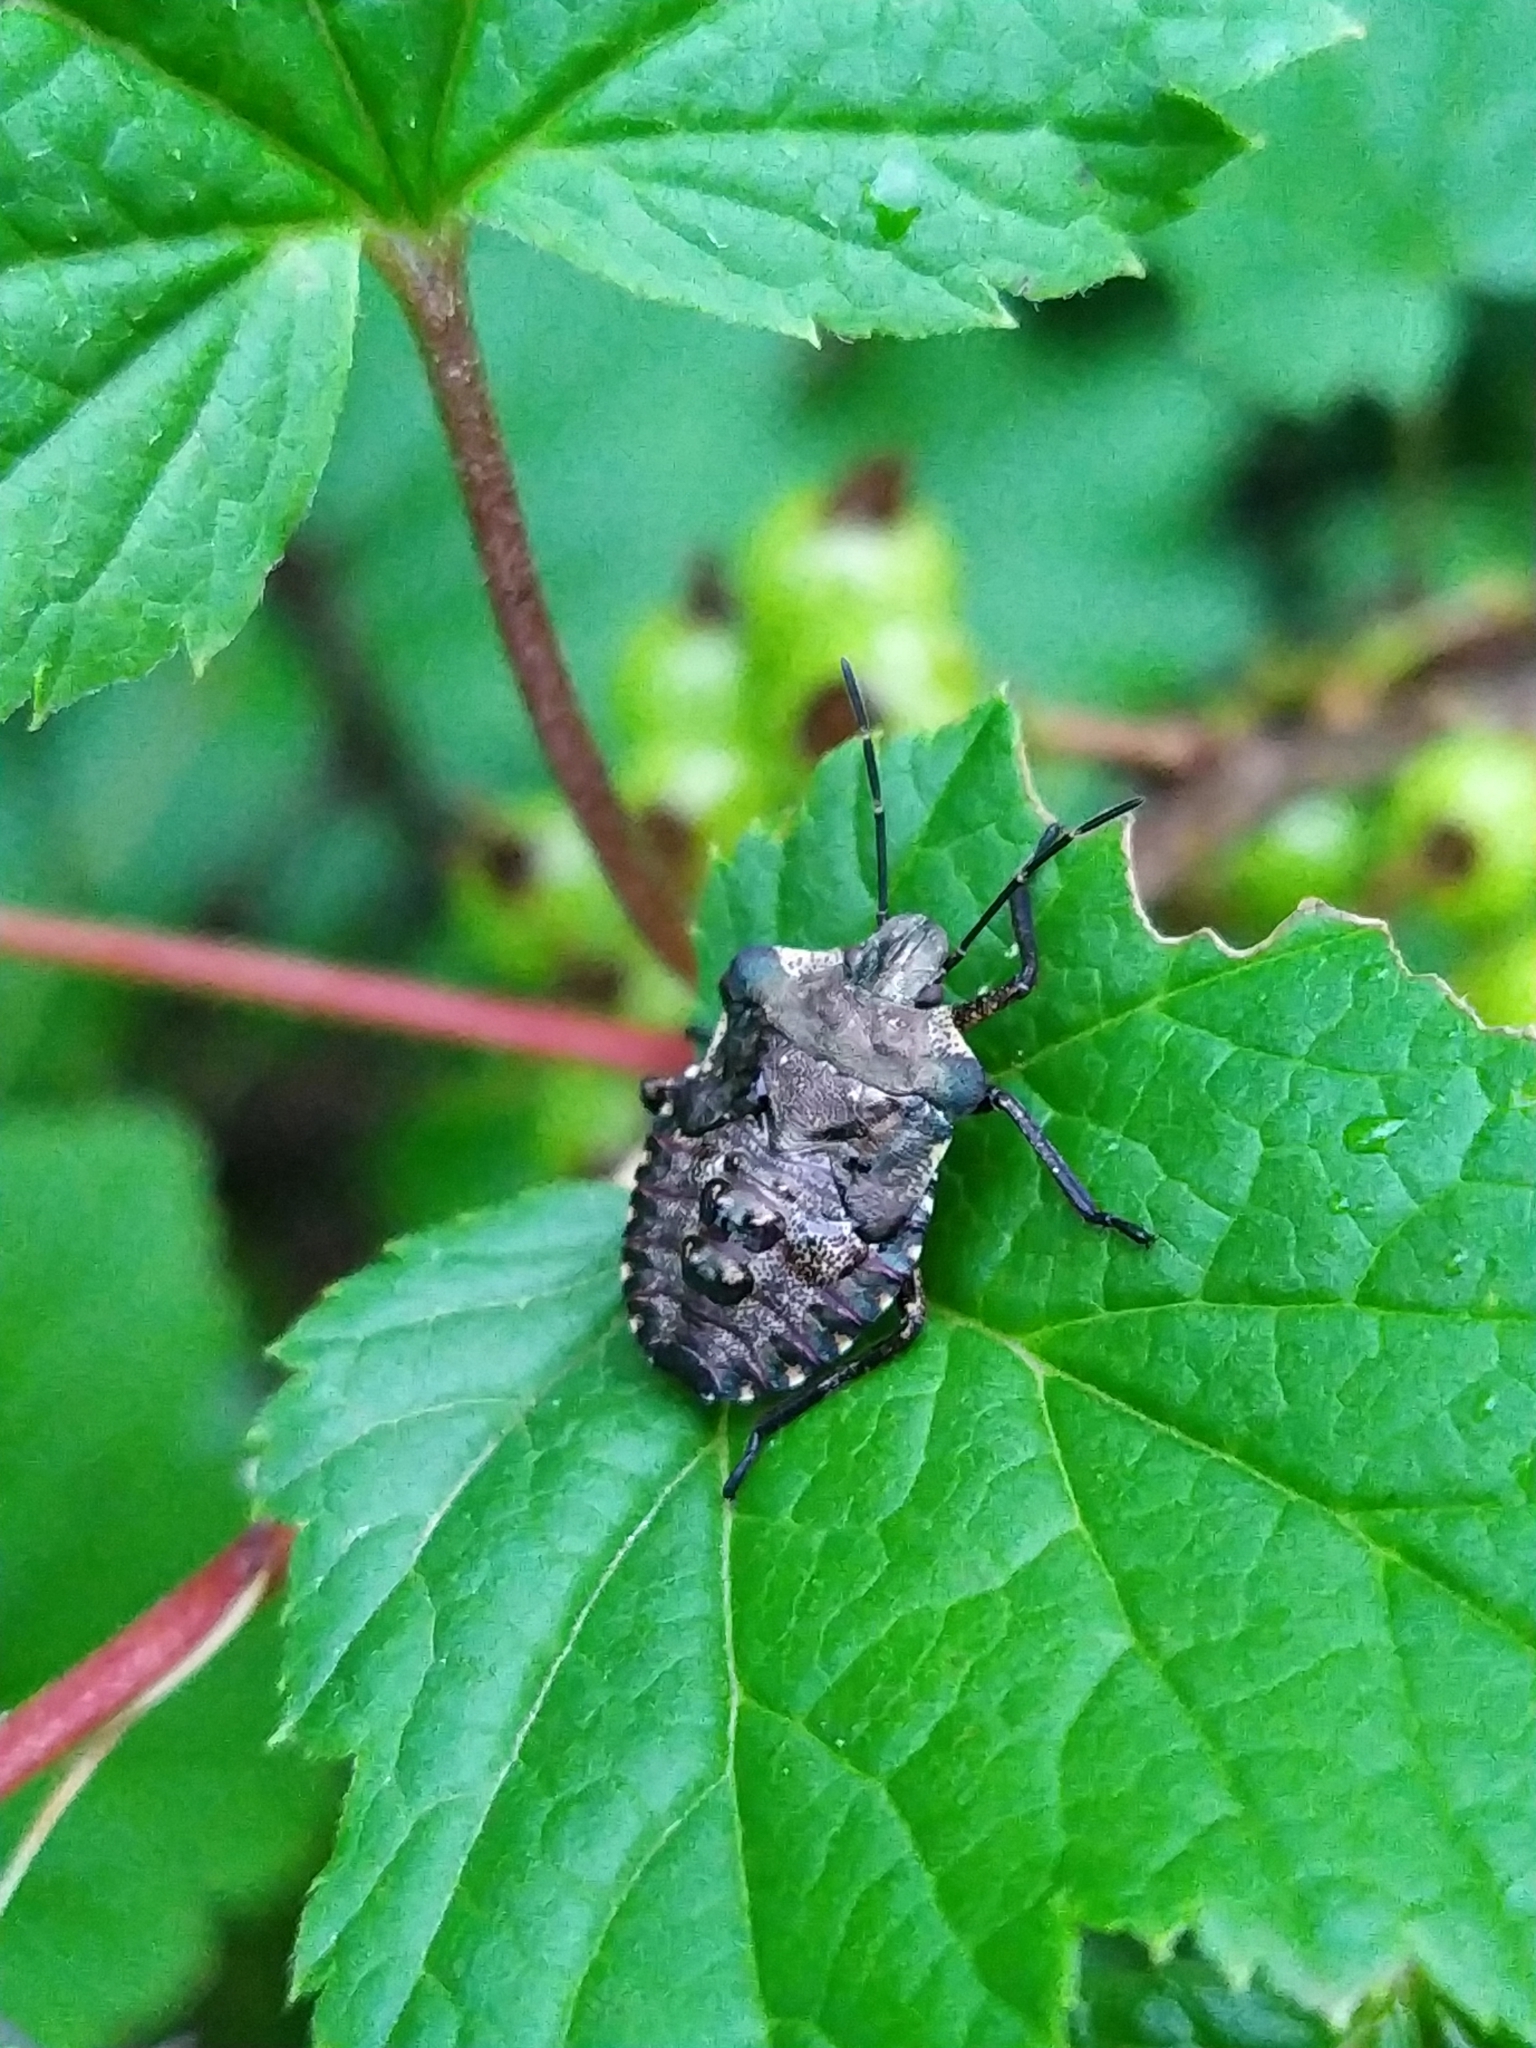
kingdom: Animalia
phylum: Arthropoda
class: Insecta
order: Hemiptera
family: Pentatomidae
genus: Pentatoma
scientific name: Pentatoma rufipes
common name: Forest bug
